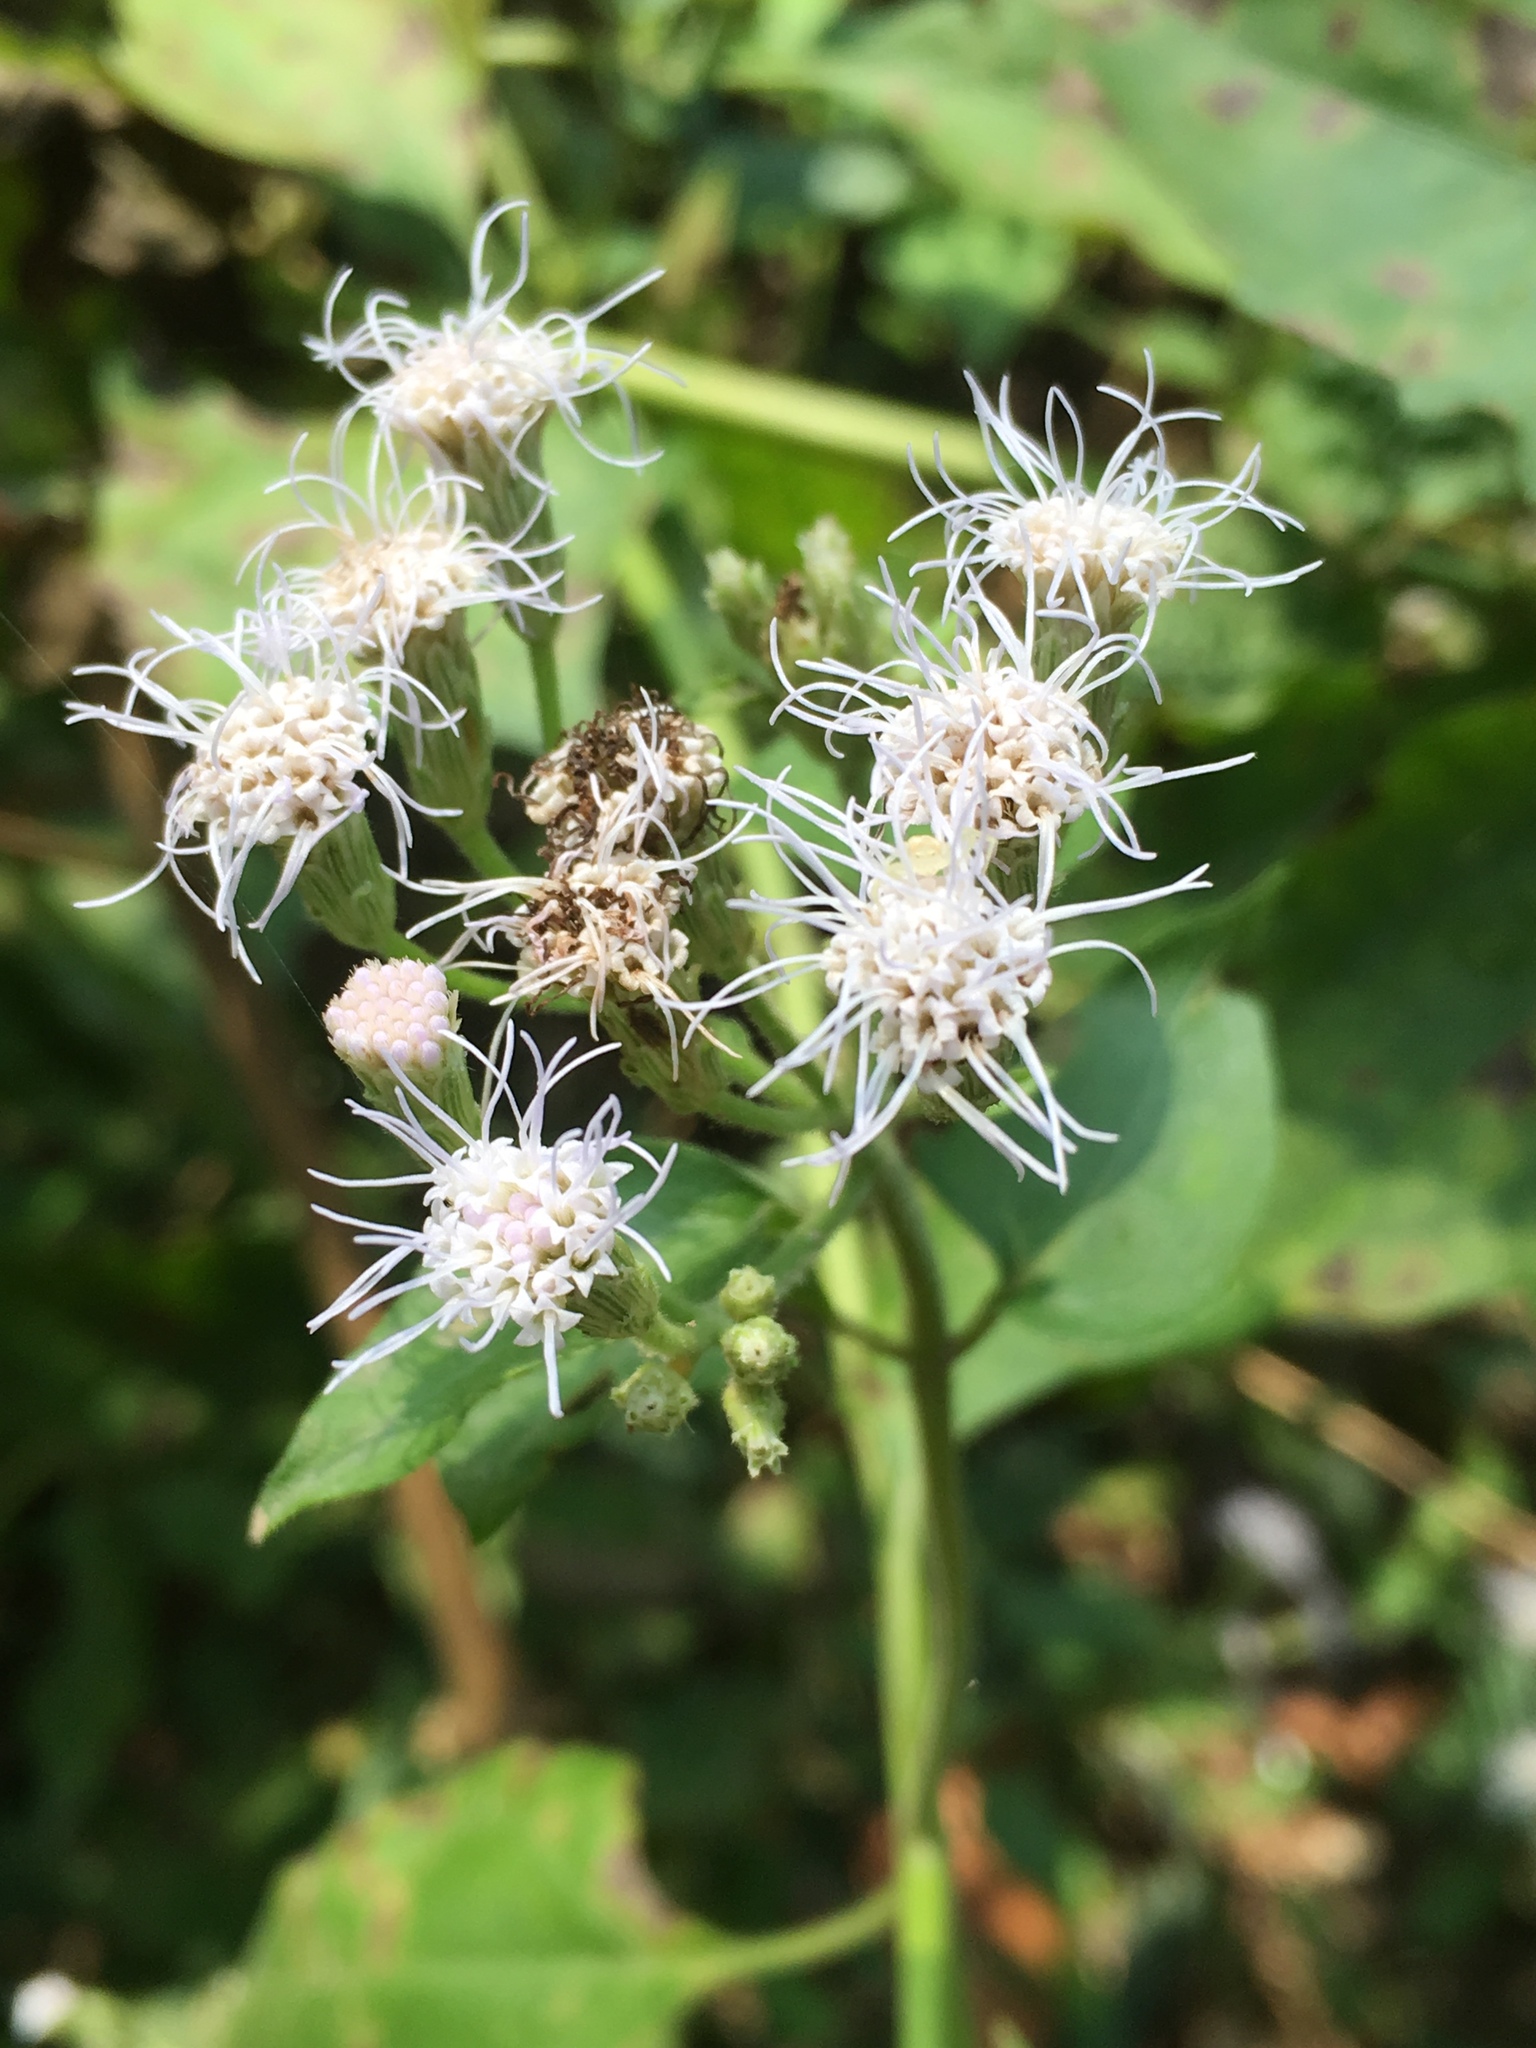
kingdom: Plantae
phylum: Tracheophyta
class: Magnoliopsida
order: Asterales
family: Asteraceae
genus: Chromolaena
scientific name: Chromolaena odorata
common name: Siamweed
